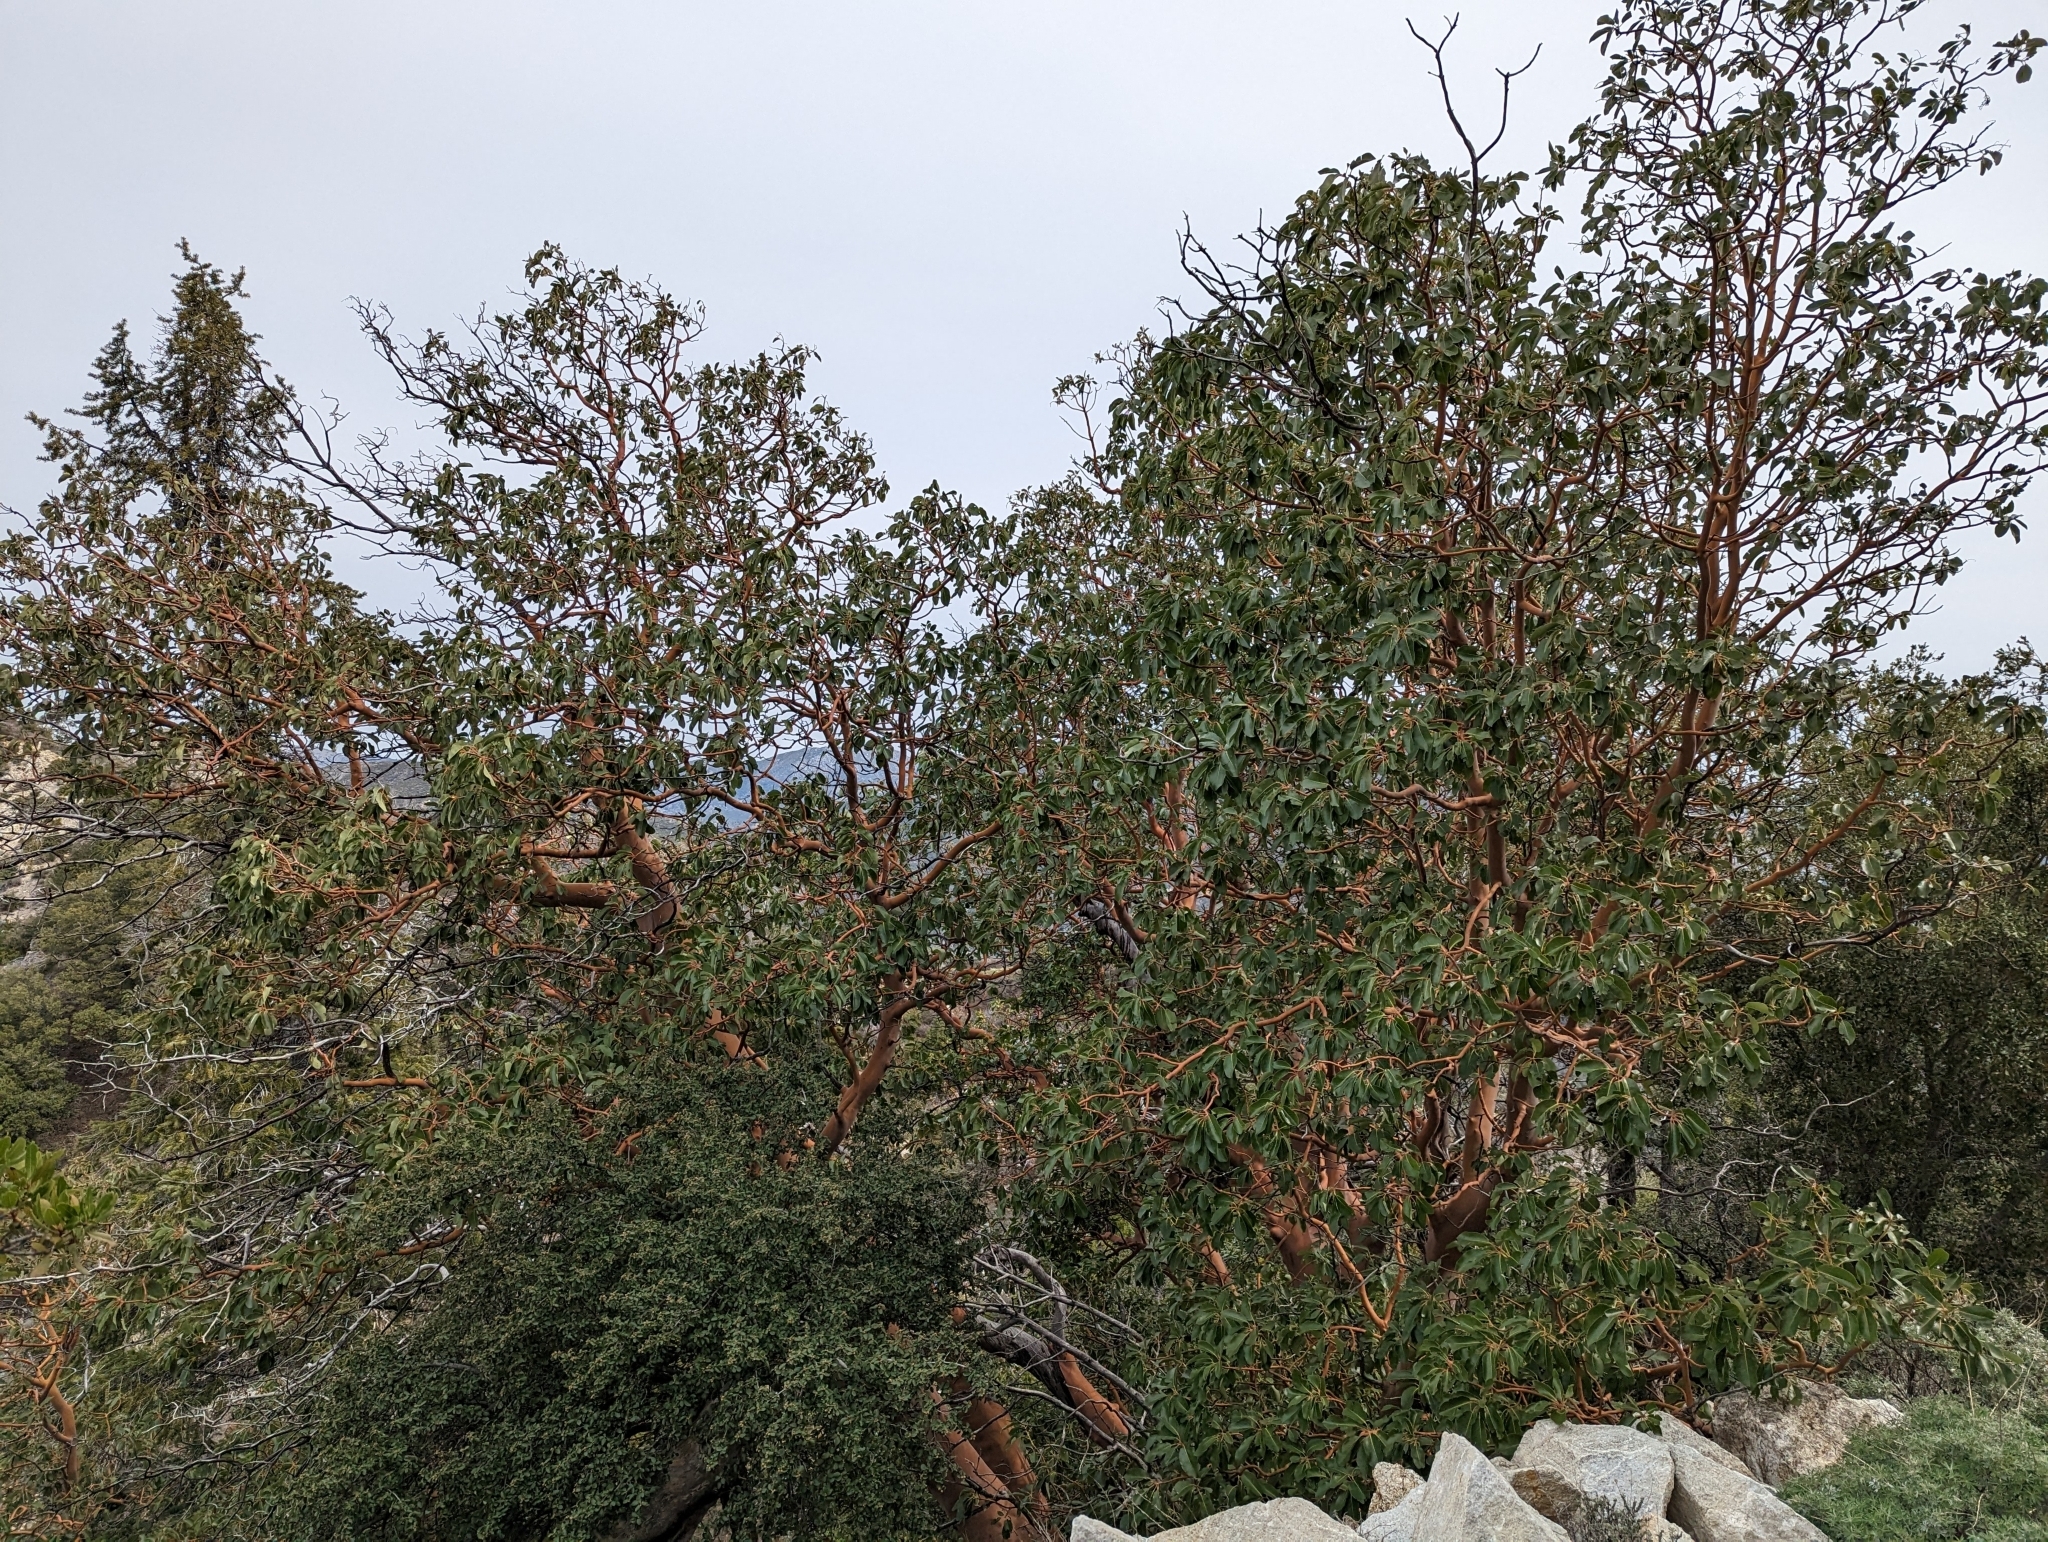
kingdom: Plantae
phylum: Tracheophyta
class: Magnoliopsida
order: Ericales
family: Ericaceae
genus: Arbutus
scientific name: Arbutus menziesii
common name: Pacific madrone
